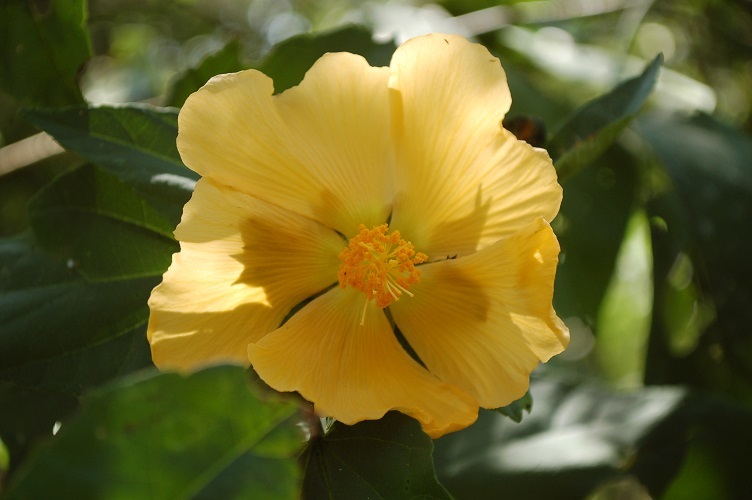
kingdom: Plantae
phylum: Tracheophyta
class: Magnoliopsida
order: Malvales
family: Malvaceae
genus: Dendrosida
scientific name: Dendrosida sharpiana
